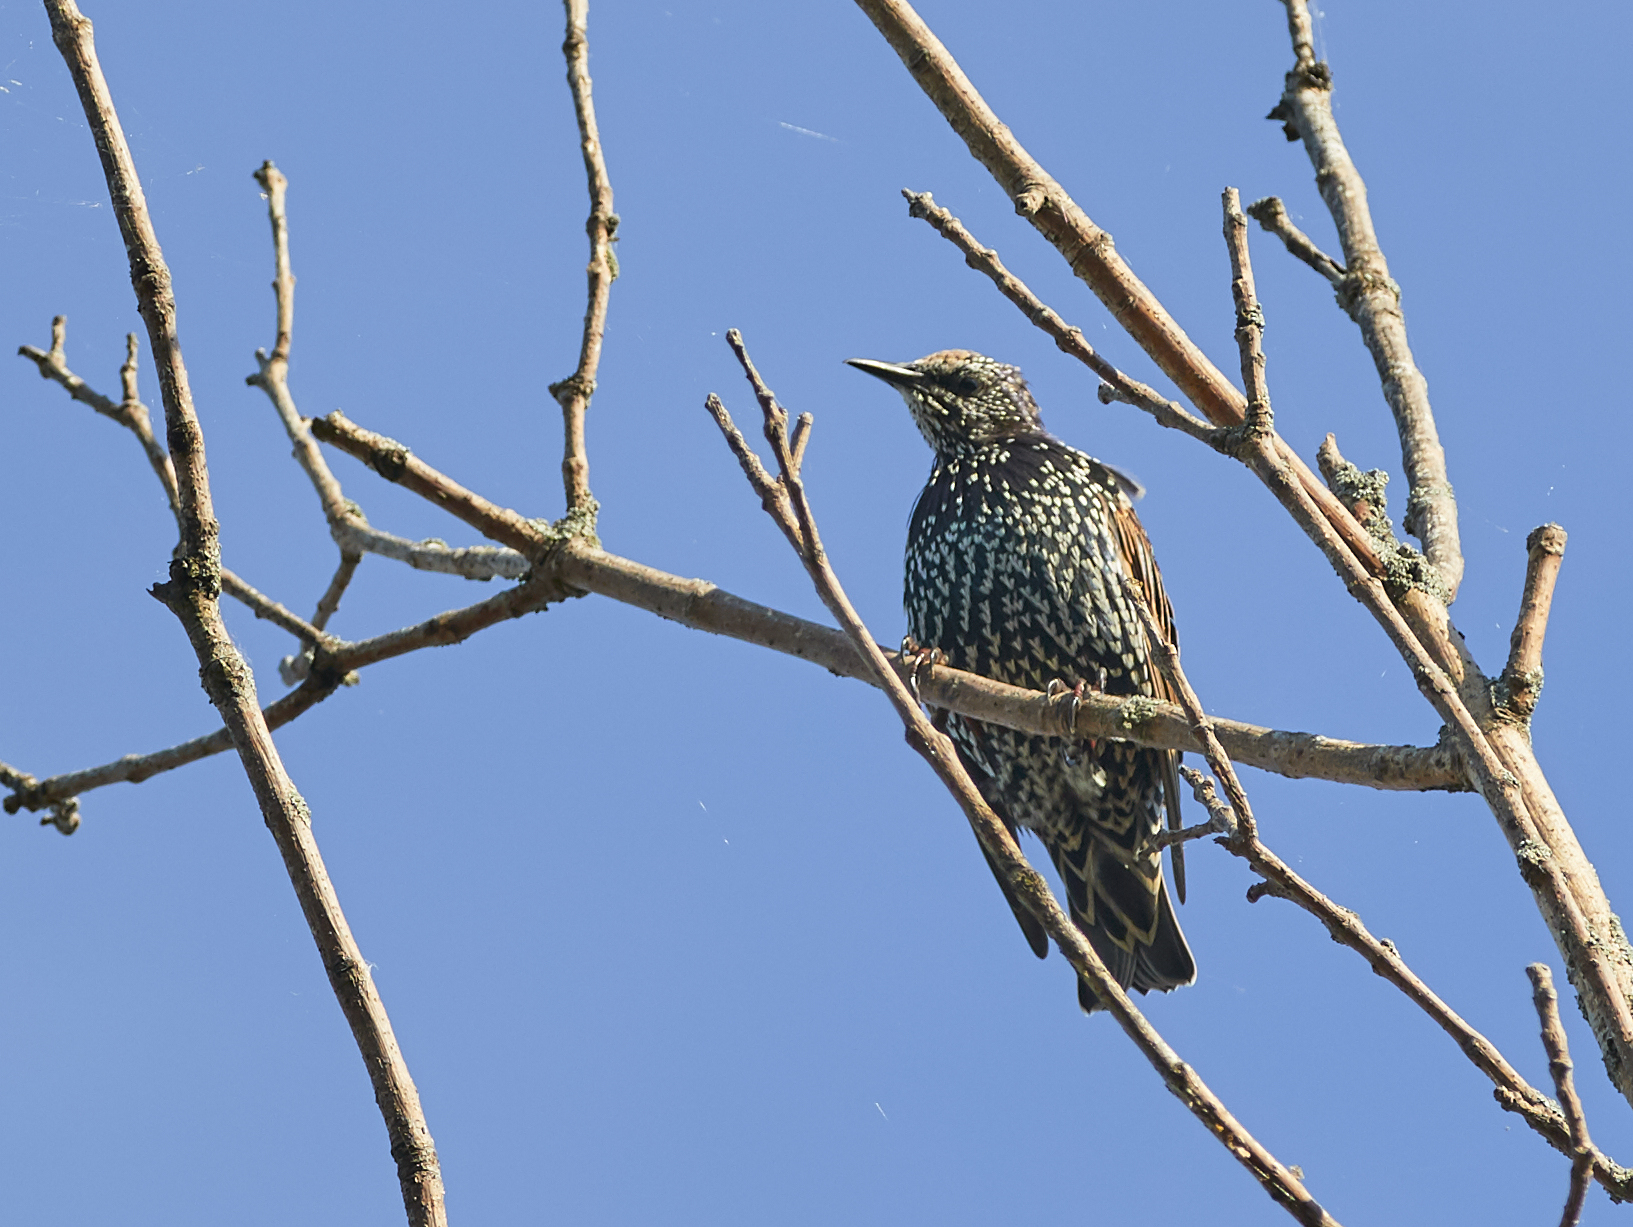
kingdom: Animalia
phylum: Chordata
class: Aves
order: Passeriformes
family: Sturnidae
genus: Sturnus
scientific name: Sturnus vulgaris
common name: Common starling
